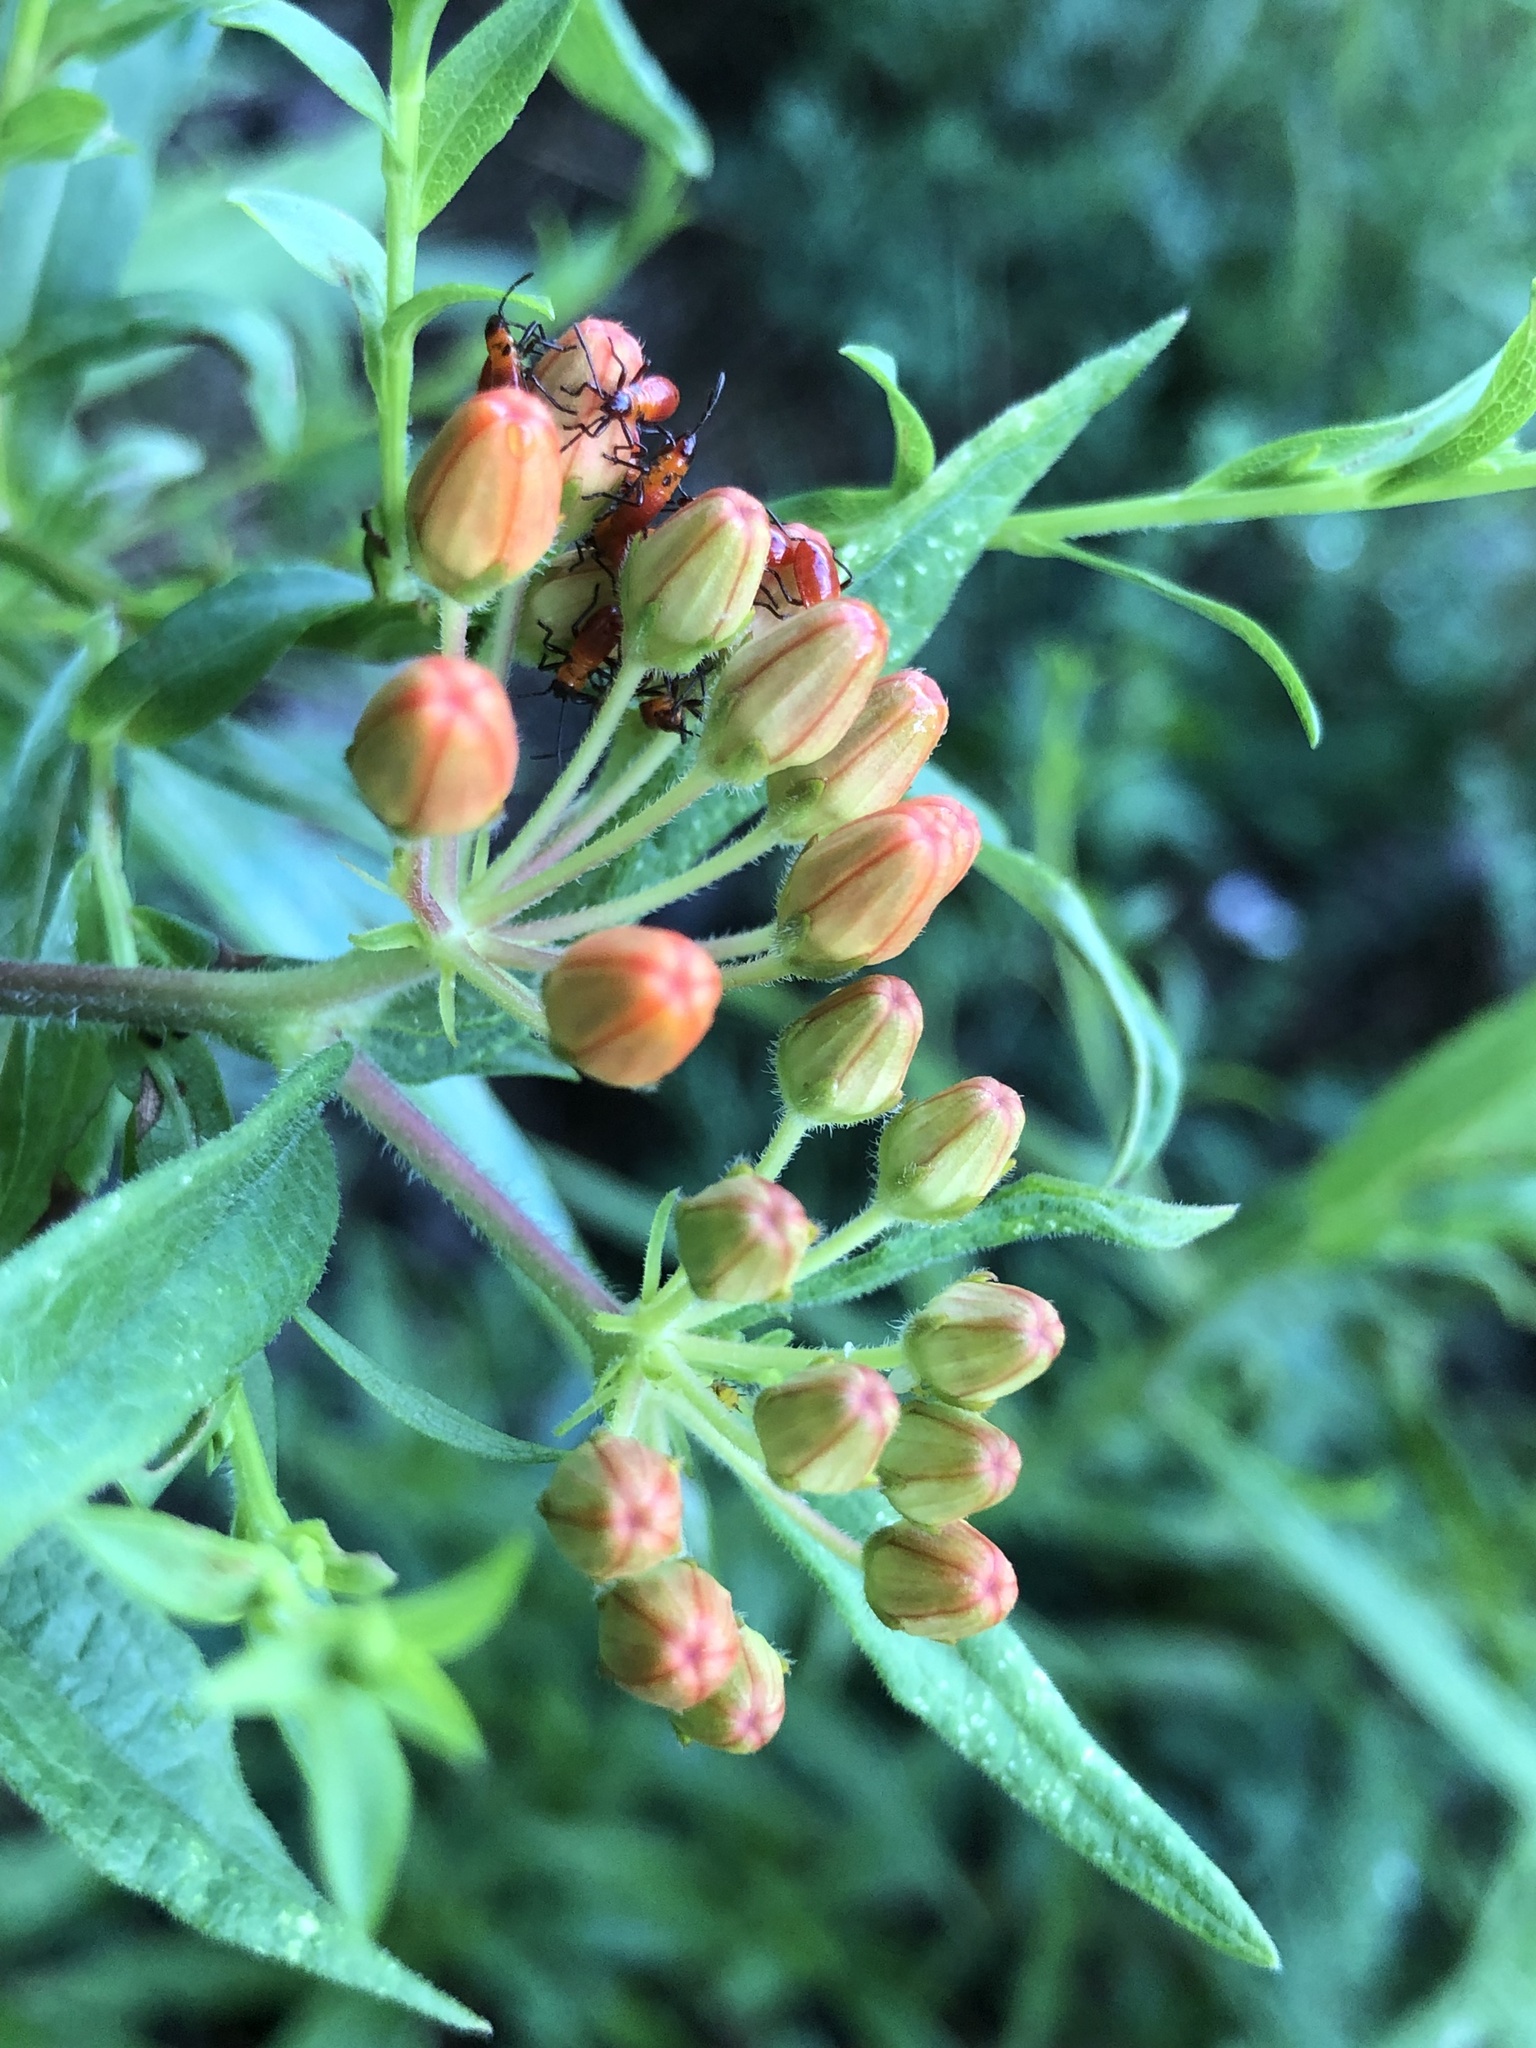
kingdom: Plantae
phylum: Tracheophyta
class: Magnoliopsida
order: Gentianales
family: Apocynaceae
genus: Asclepias
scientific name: Asclepias tuberosa
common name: Butterfly milkweed
